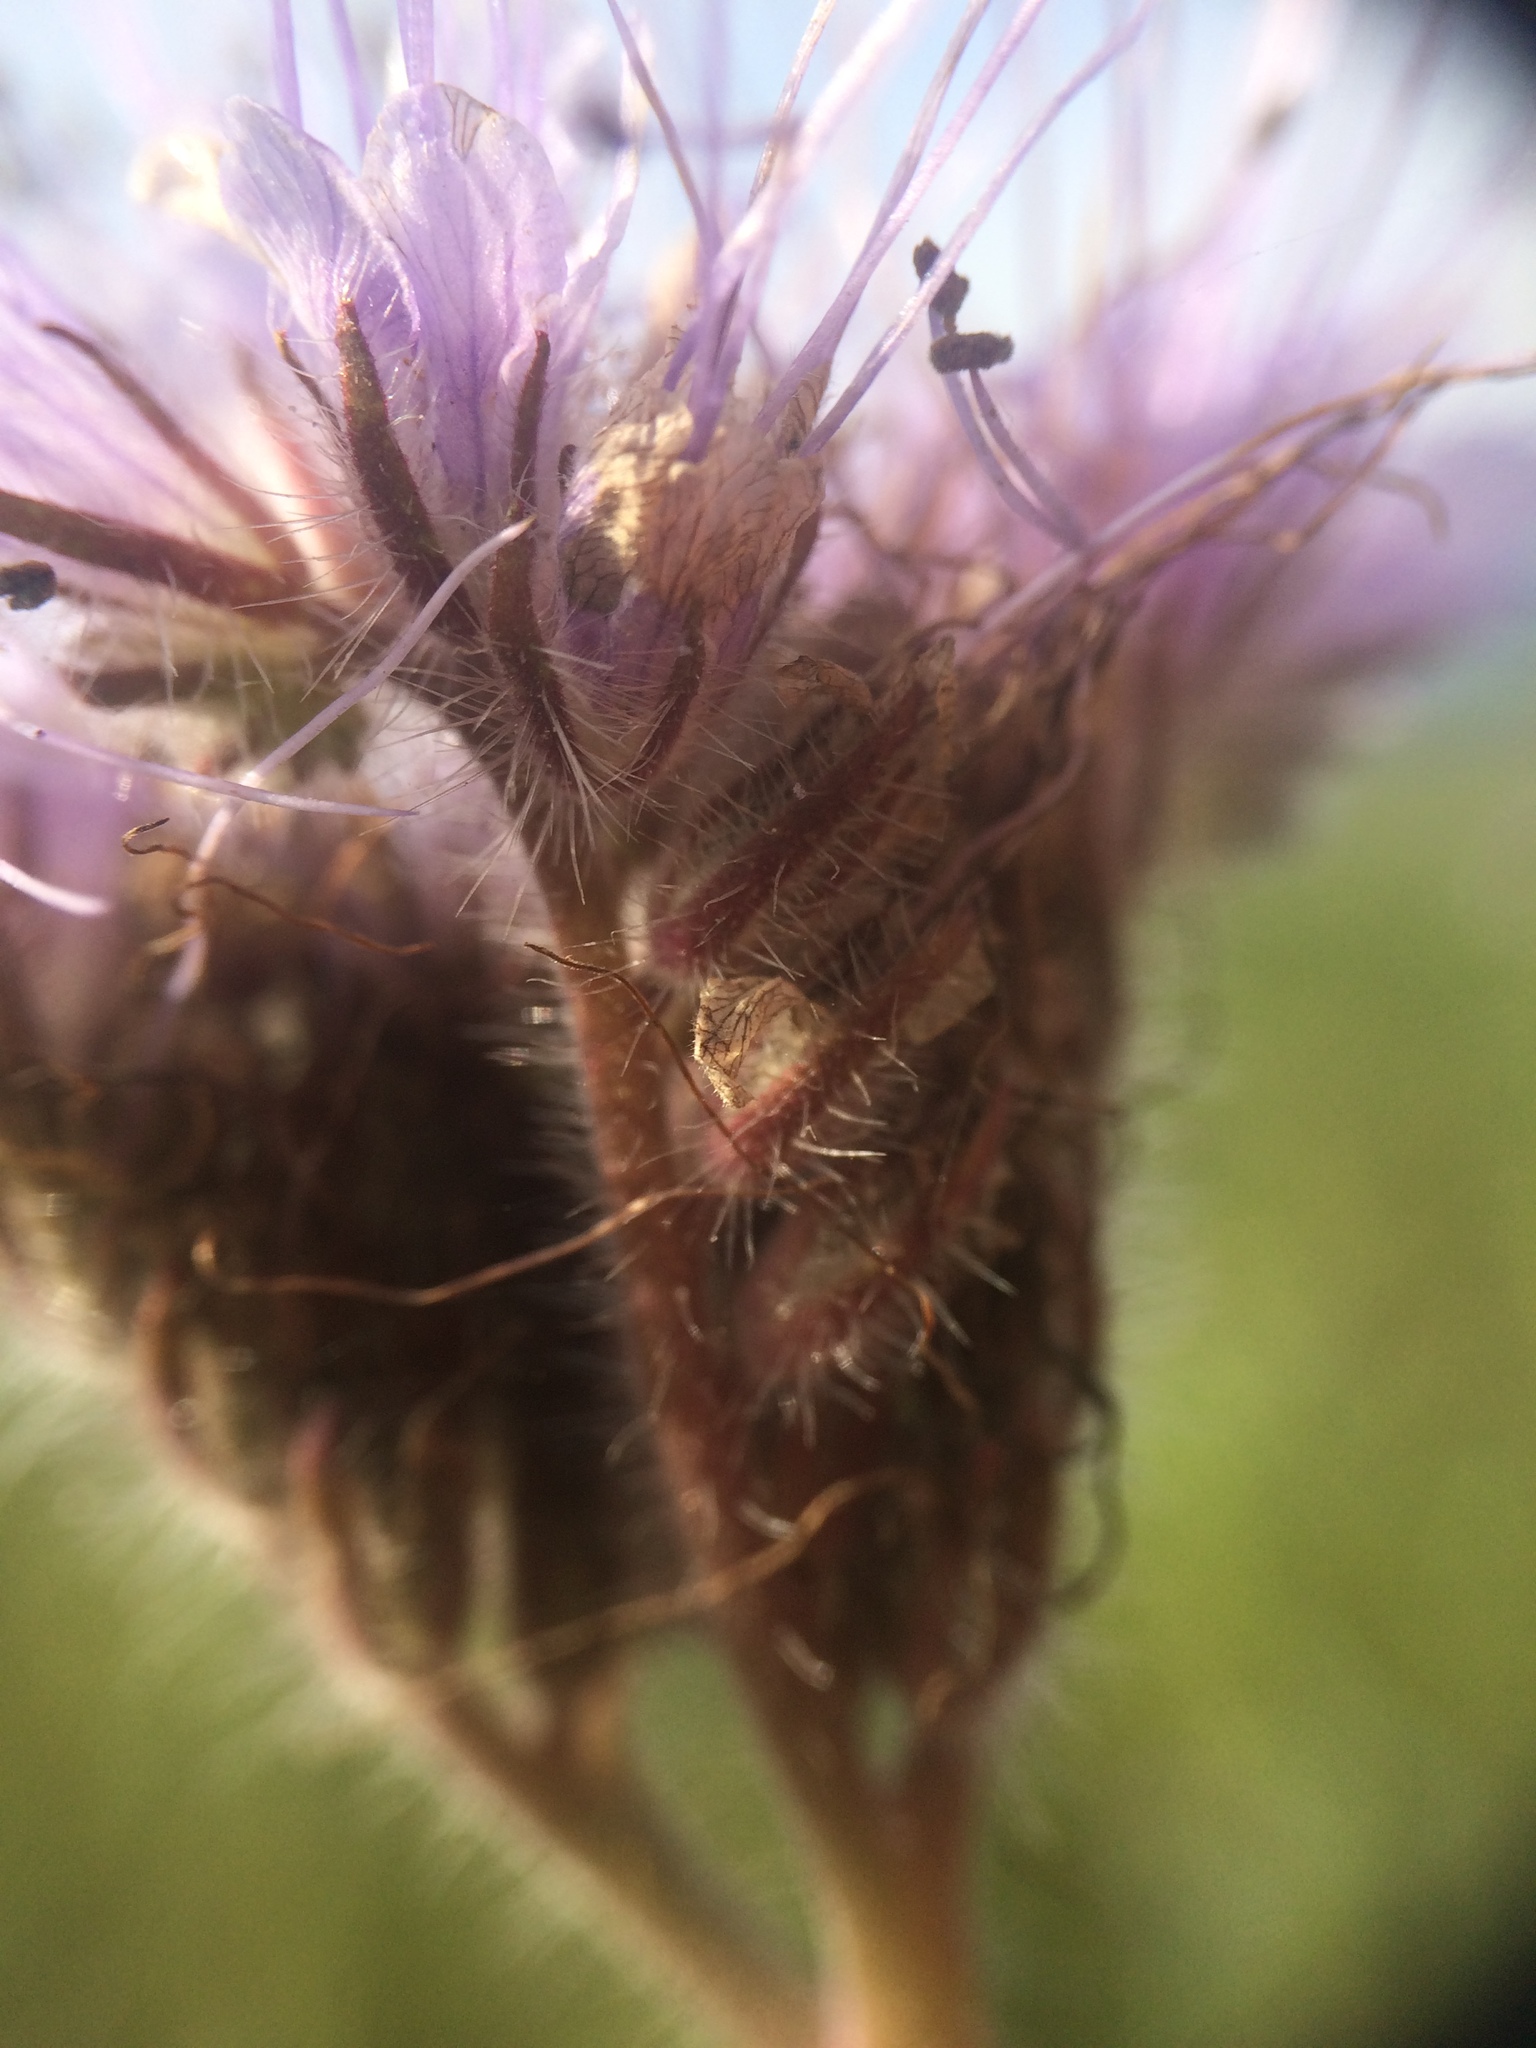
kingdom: Plantae
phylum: Tracheophyta
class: Magnoliopsida
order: Boraginales
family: Hydrophyllaceae
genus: Phacelia
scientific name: Phacelia tanacetifolia
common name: Phacelia
